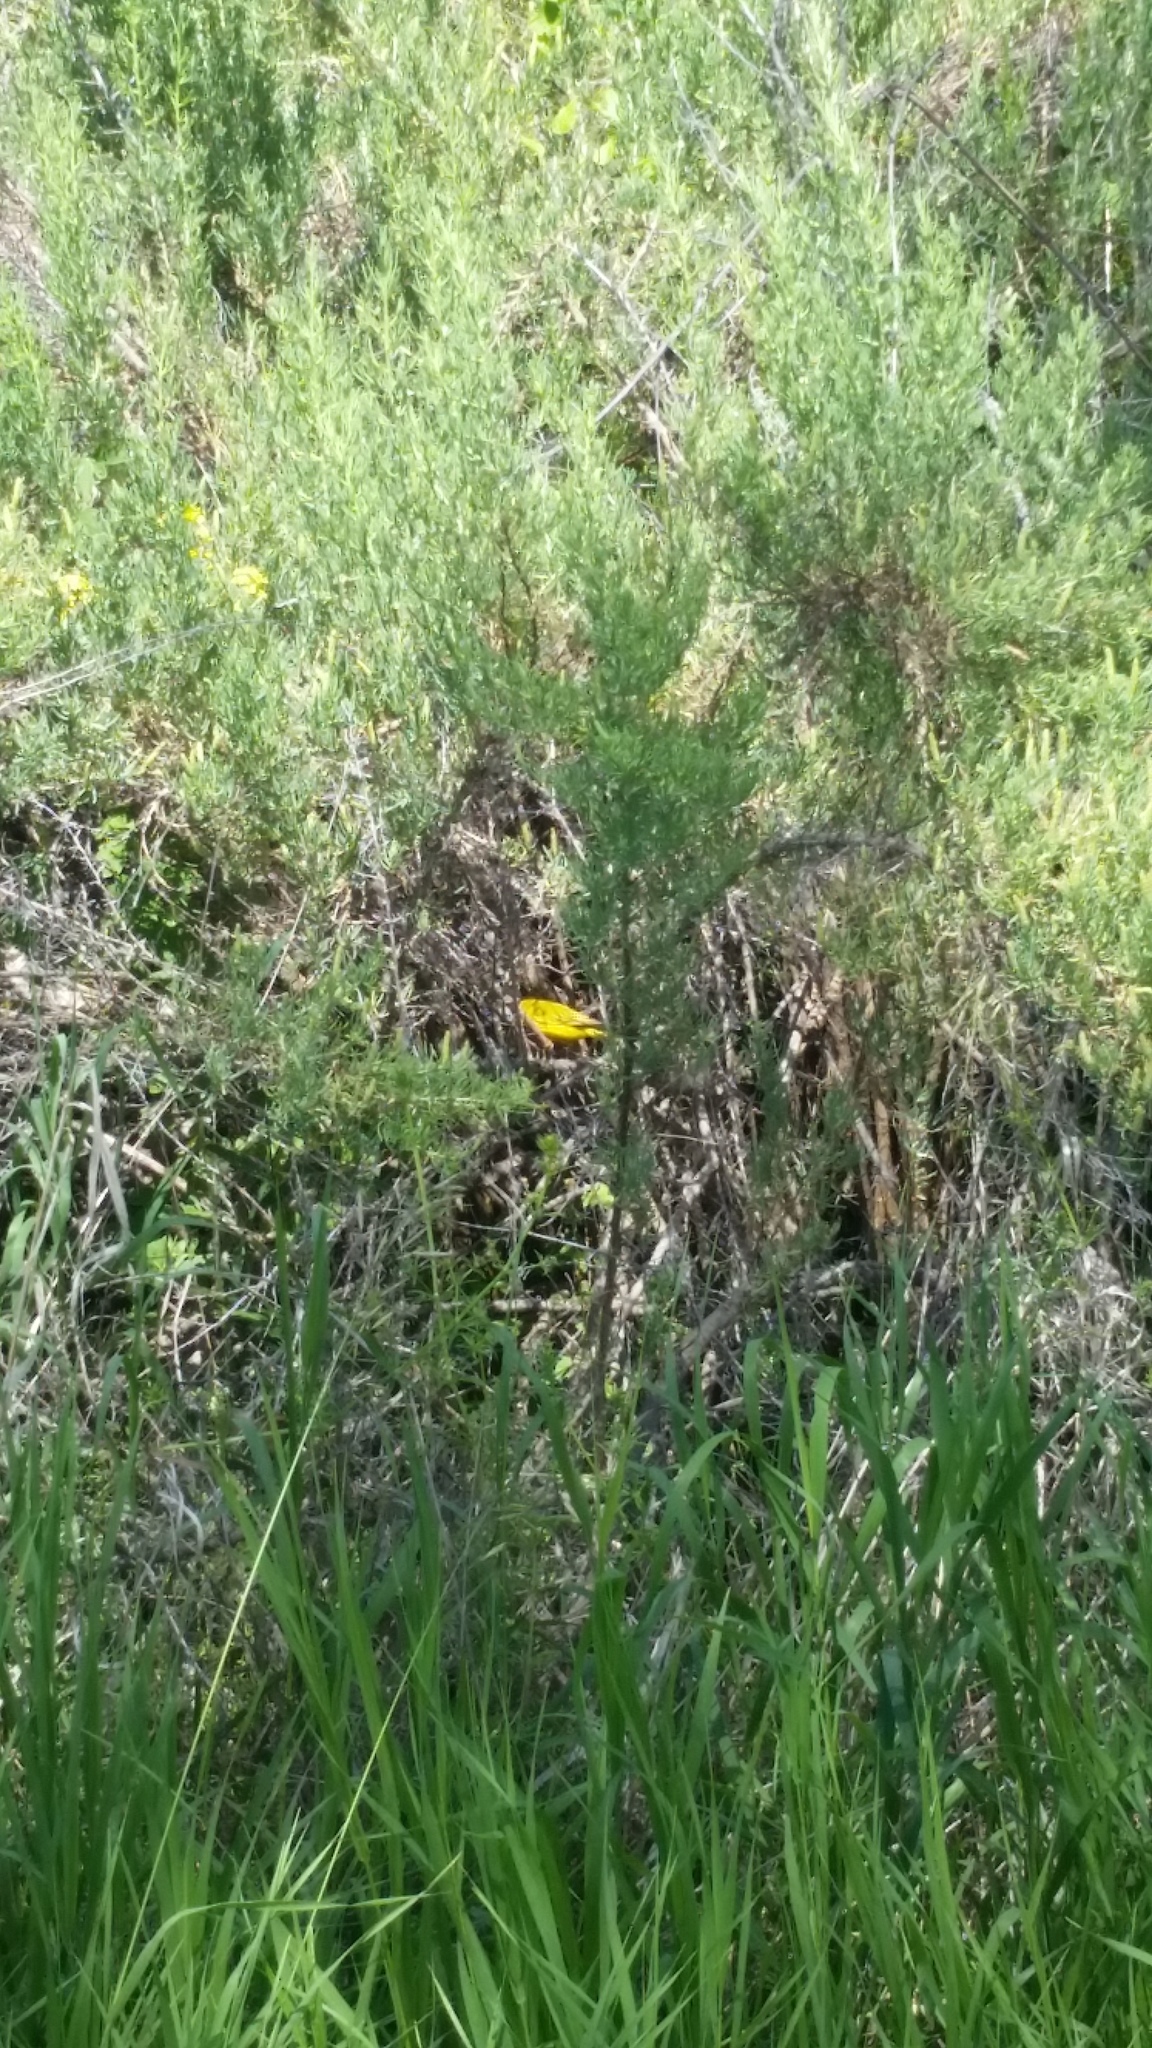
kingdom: Animalia
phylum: Chordata
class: Aves
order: Passeriformes
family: Parulidae
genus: Setophaga
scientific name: Setophaga petechia
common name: Yellow warbler
